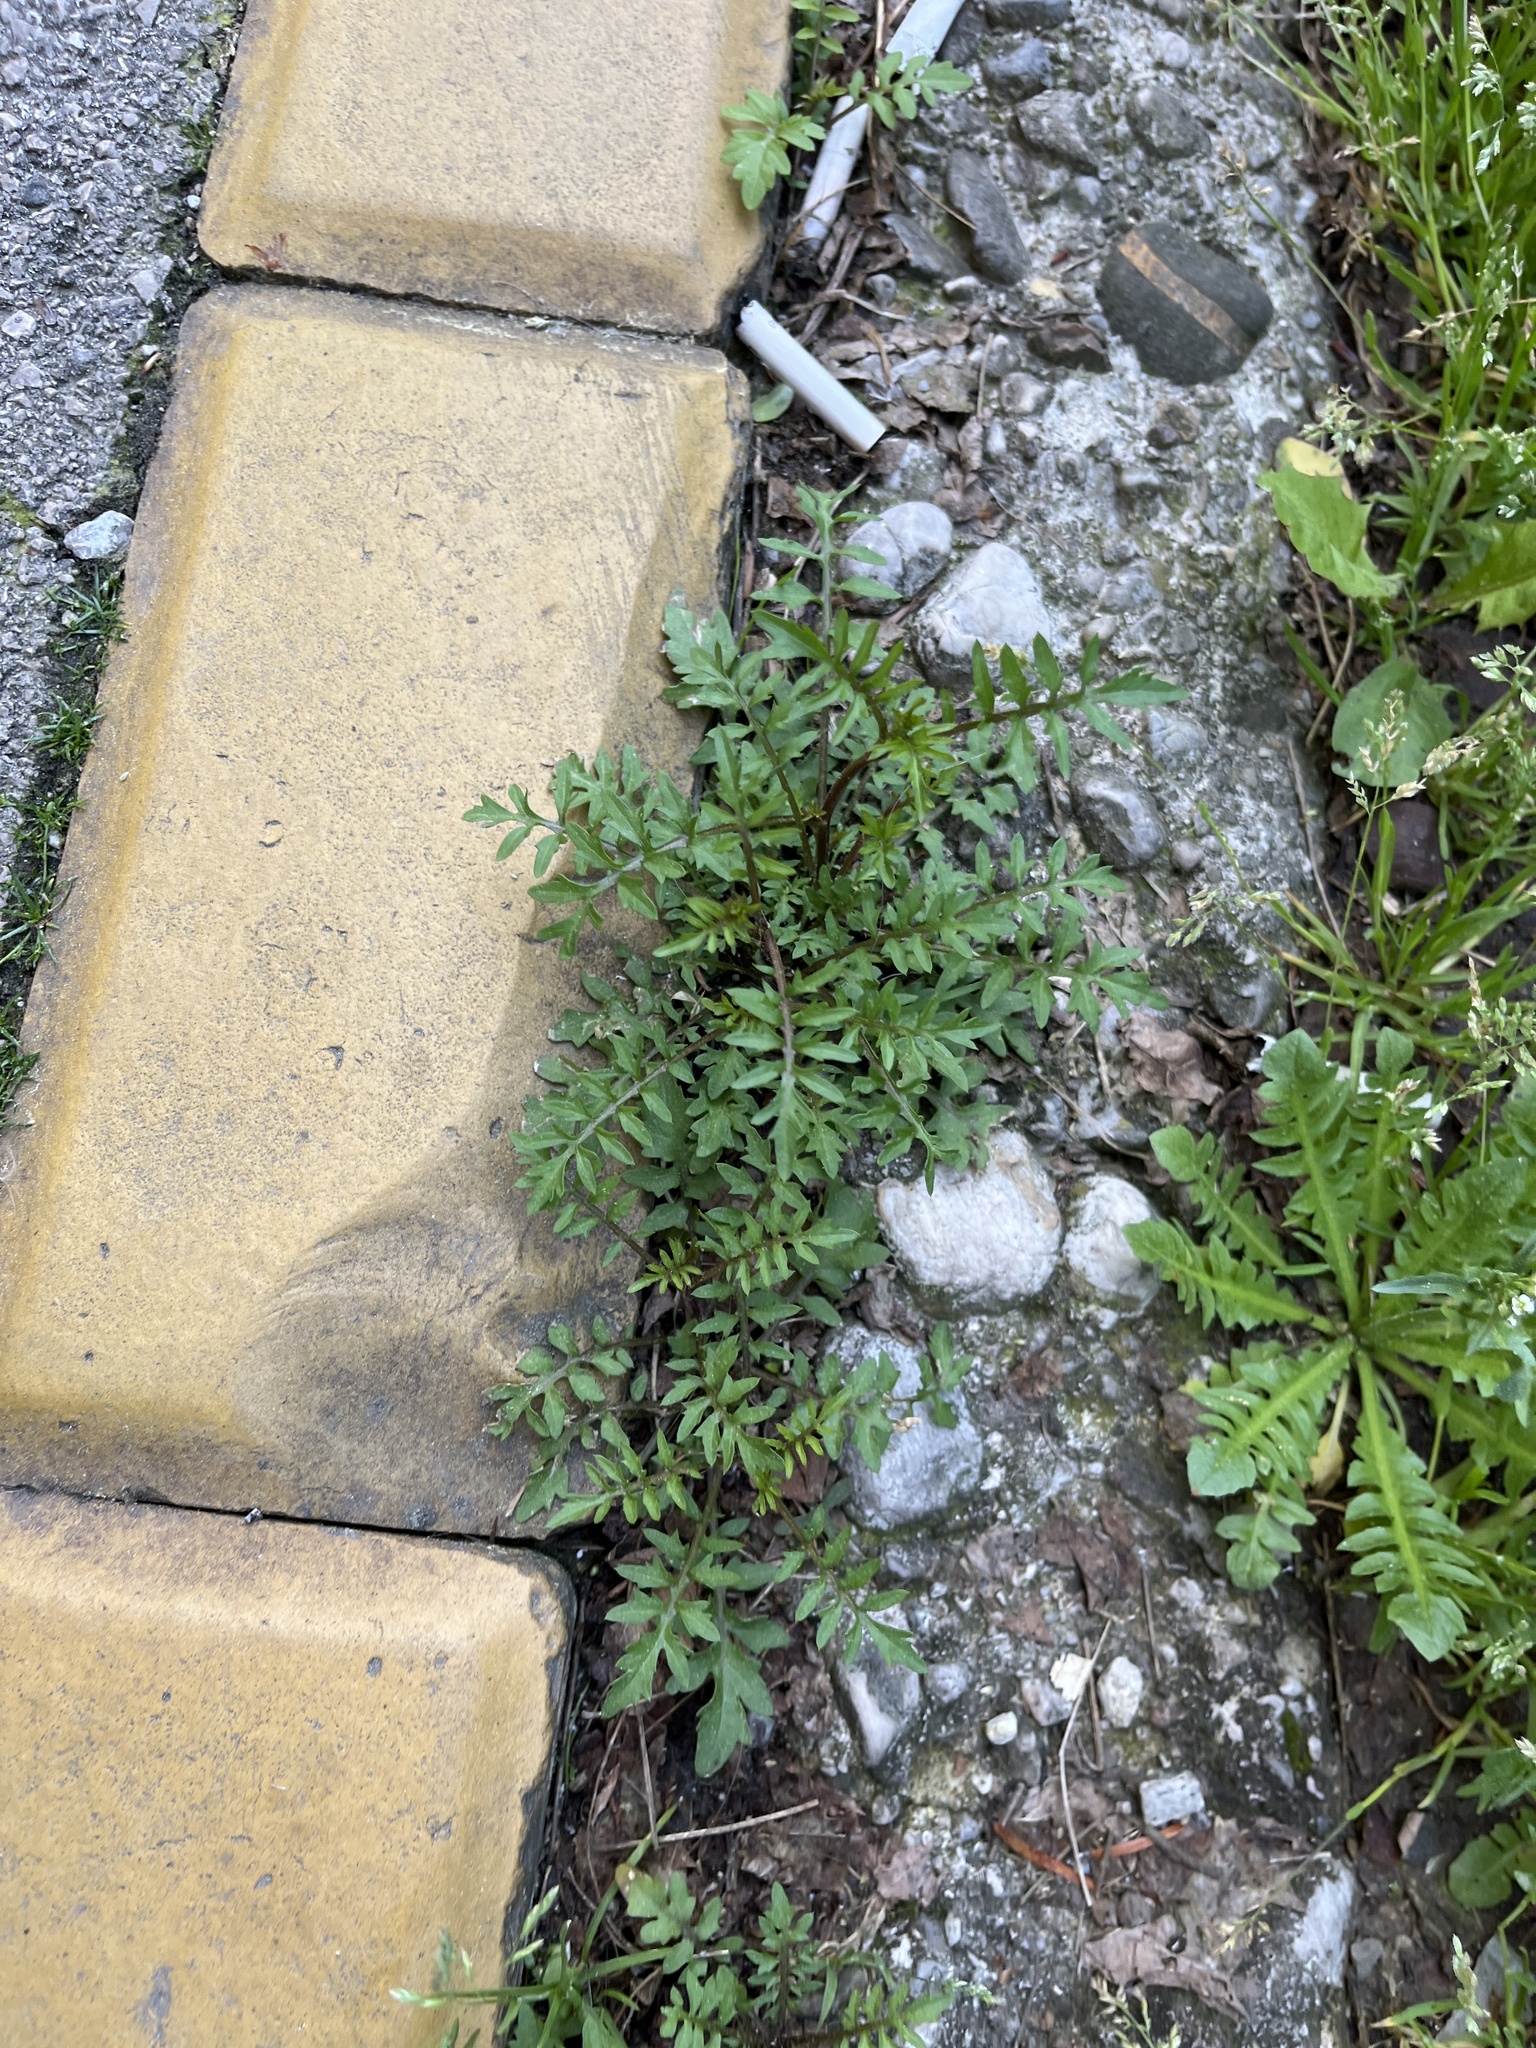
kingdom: Plantae
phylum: Tracheophyta
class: Magnoliopsida
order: Brassicales
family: Brassicaceae
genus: Rorippa
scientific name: Rorippa sylvestris
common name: Creeping yellowcress
